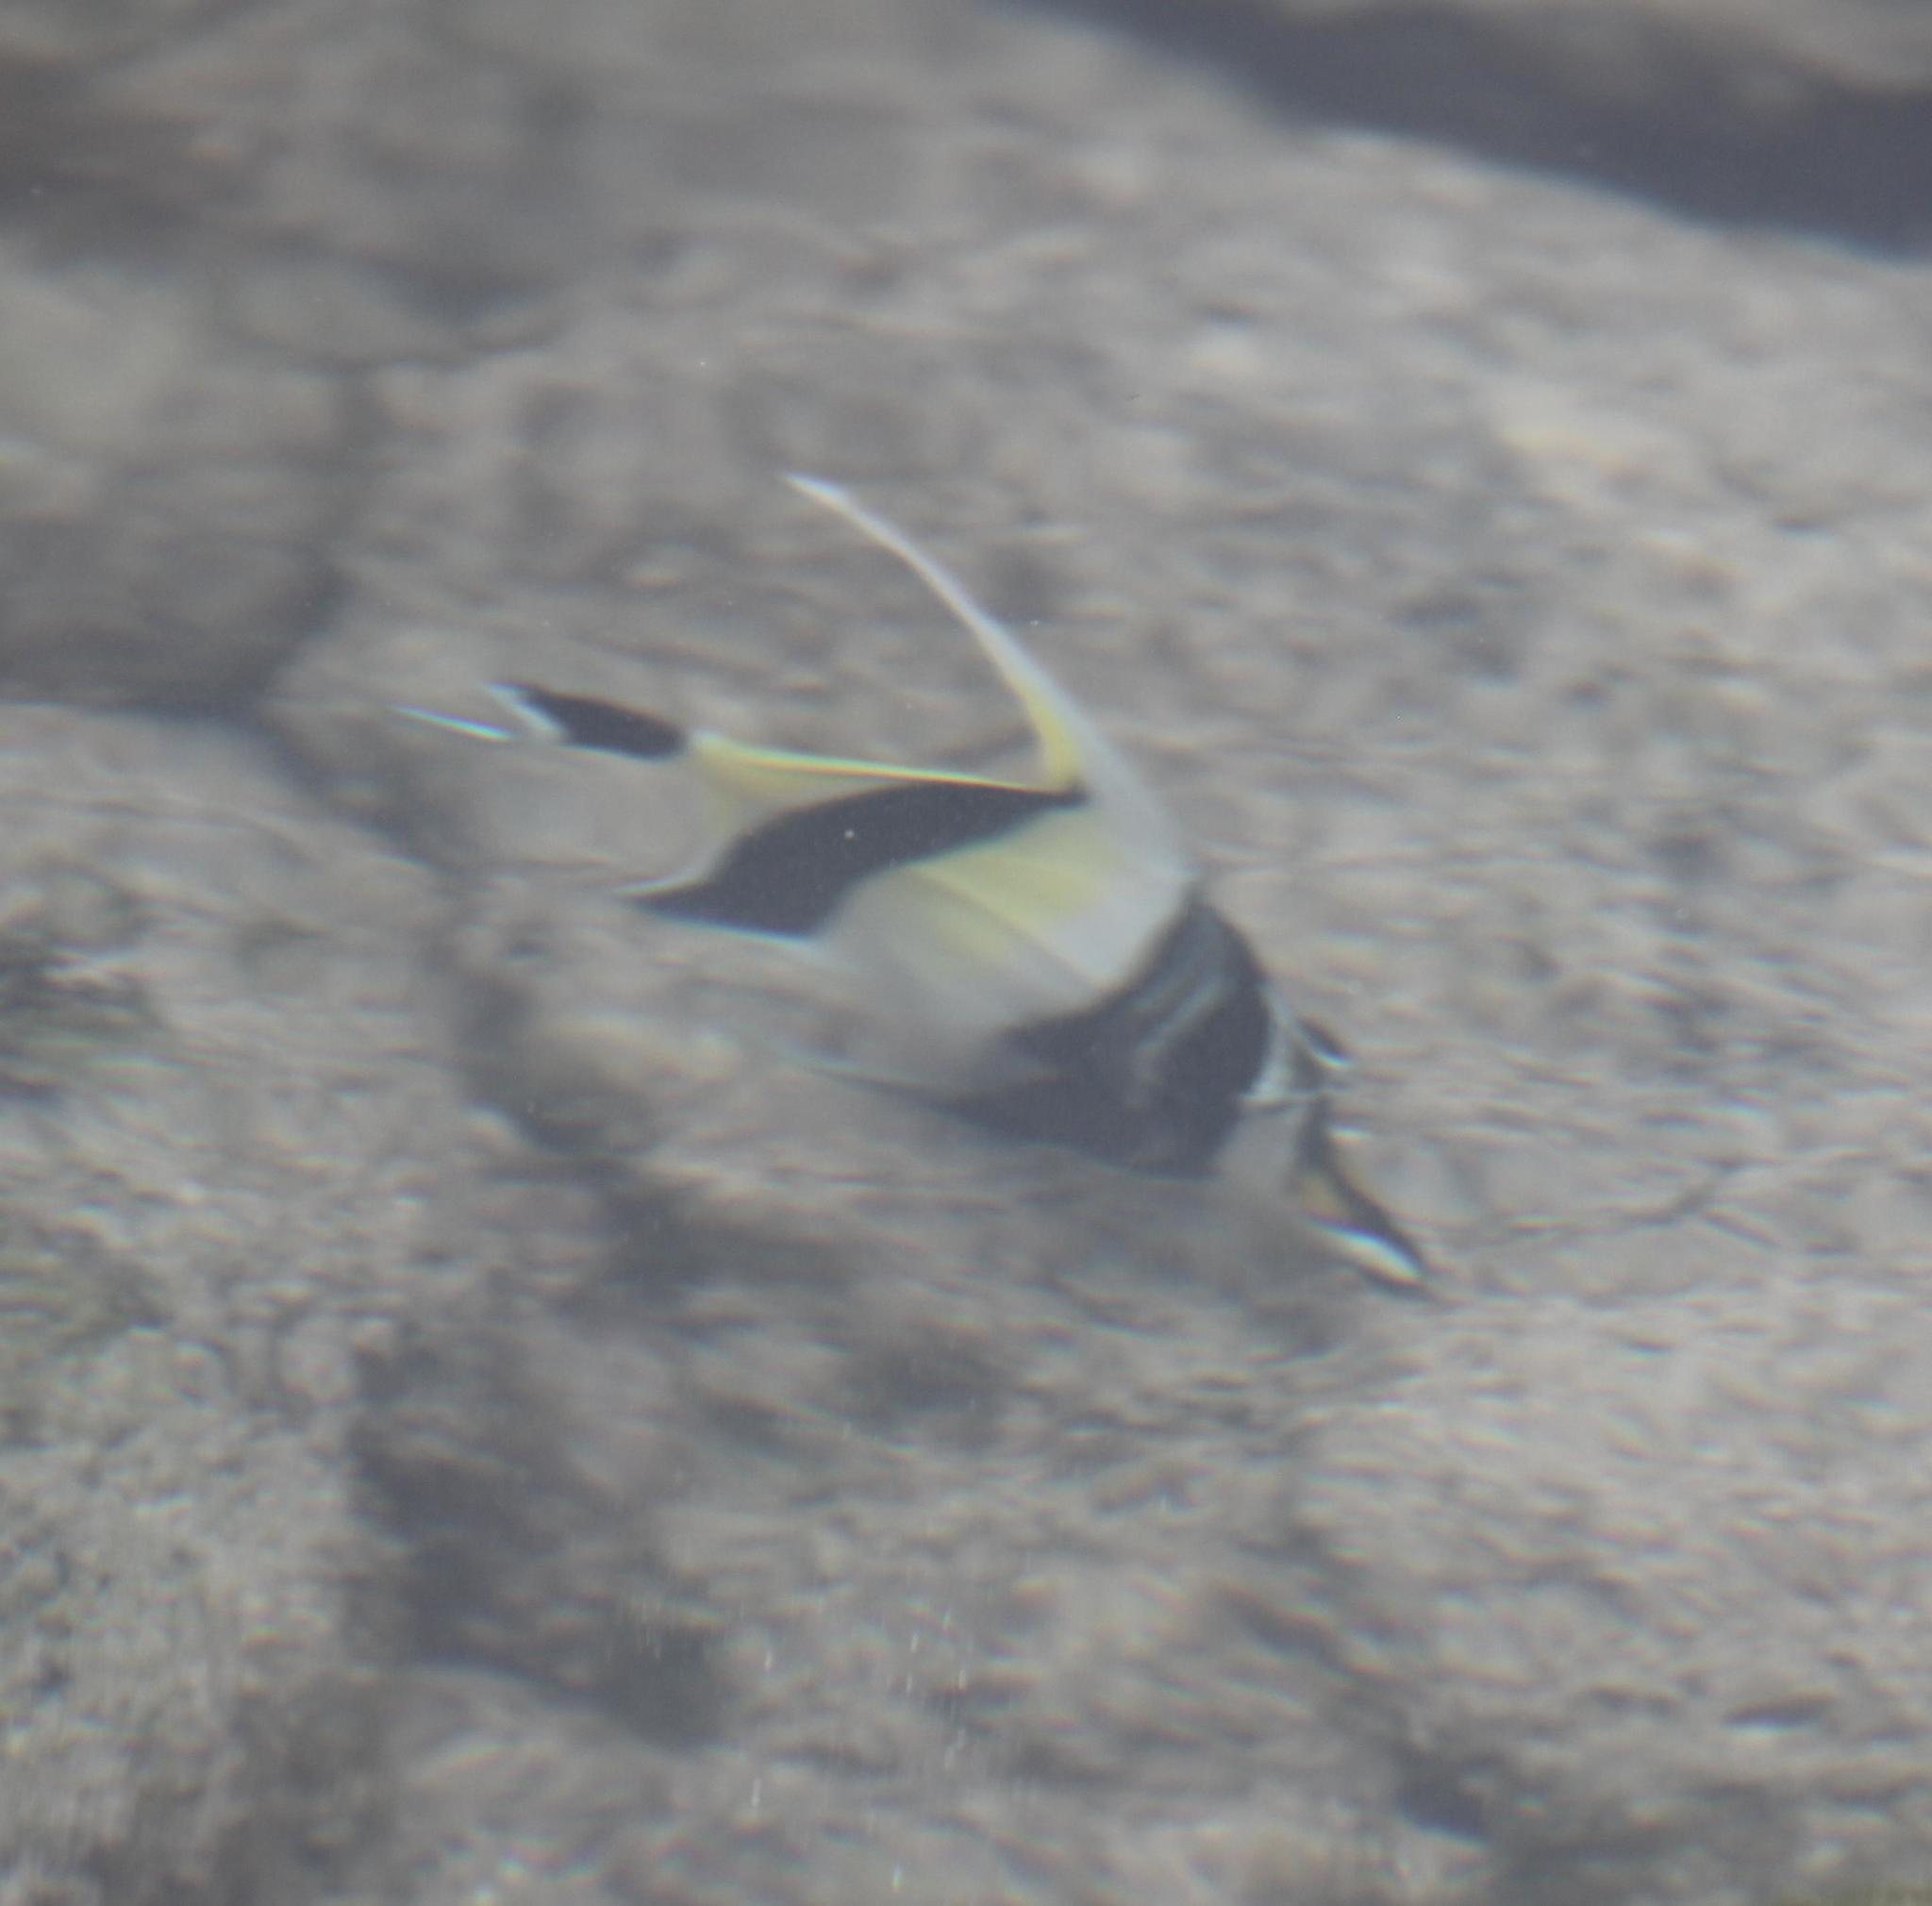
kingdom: Animalia
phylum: Chordata
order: Perciformes
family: Zanclidae
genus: Zanclus
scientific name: Zanclus cornutus
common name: Moorish idol
